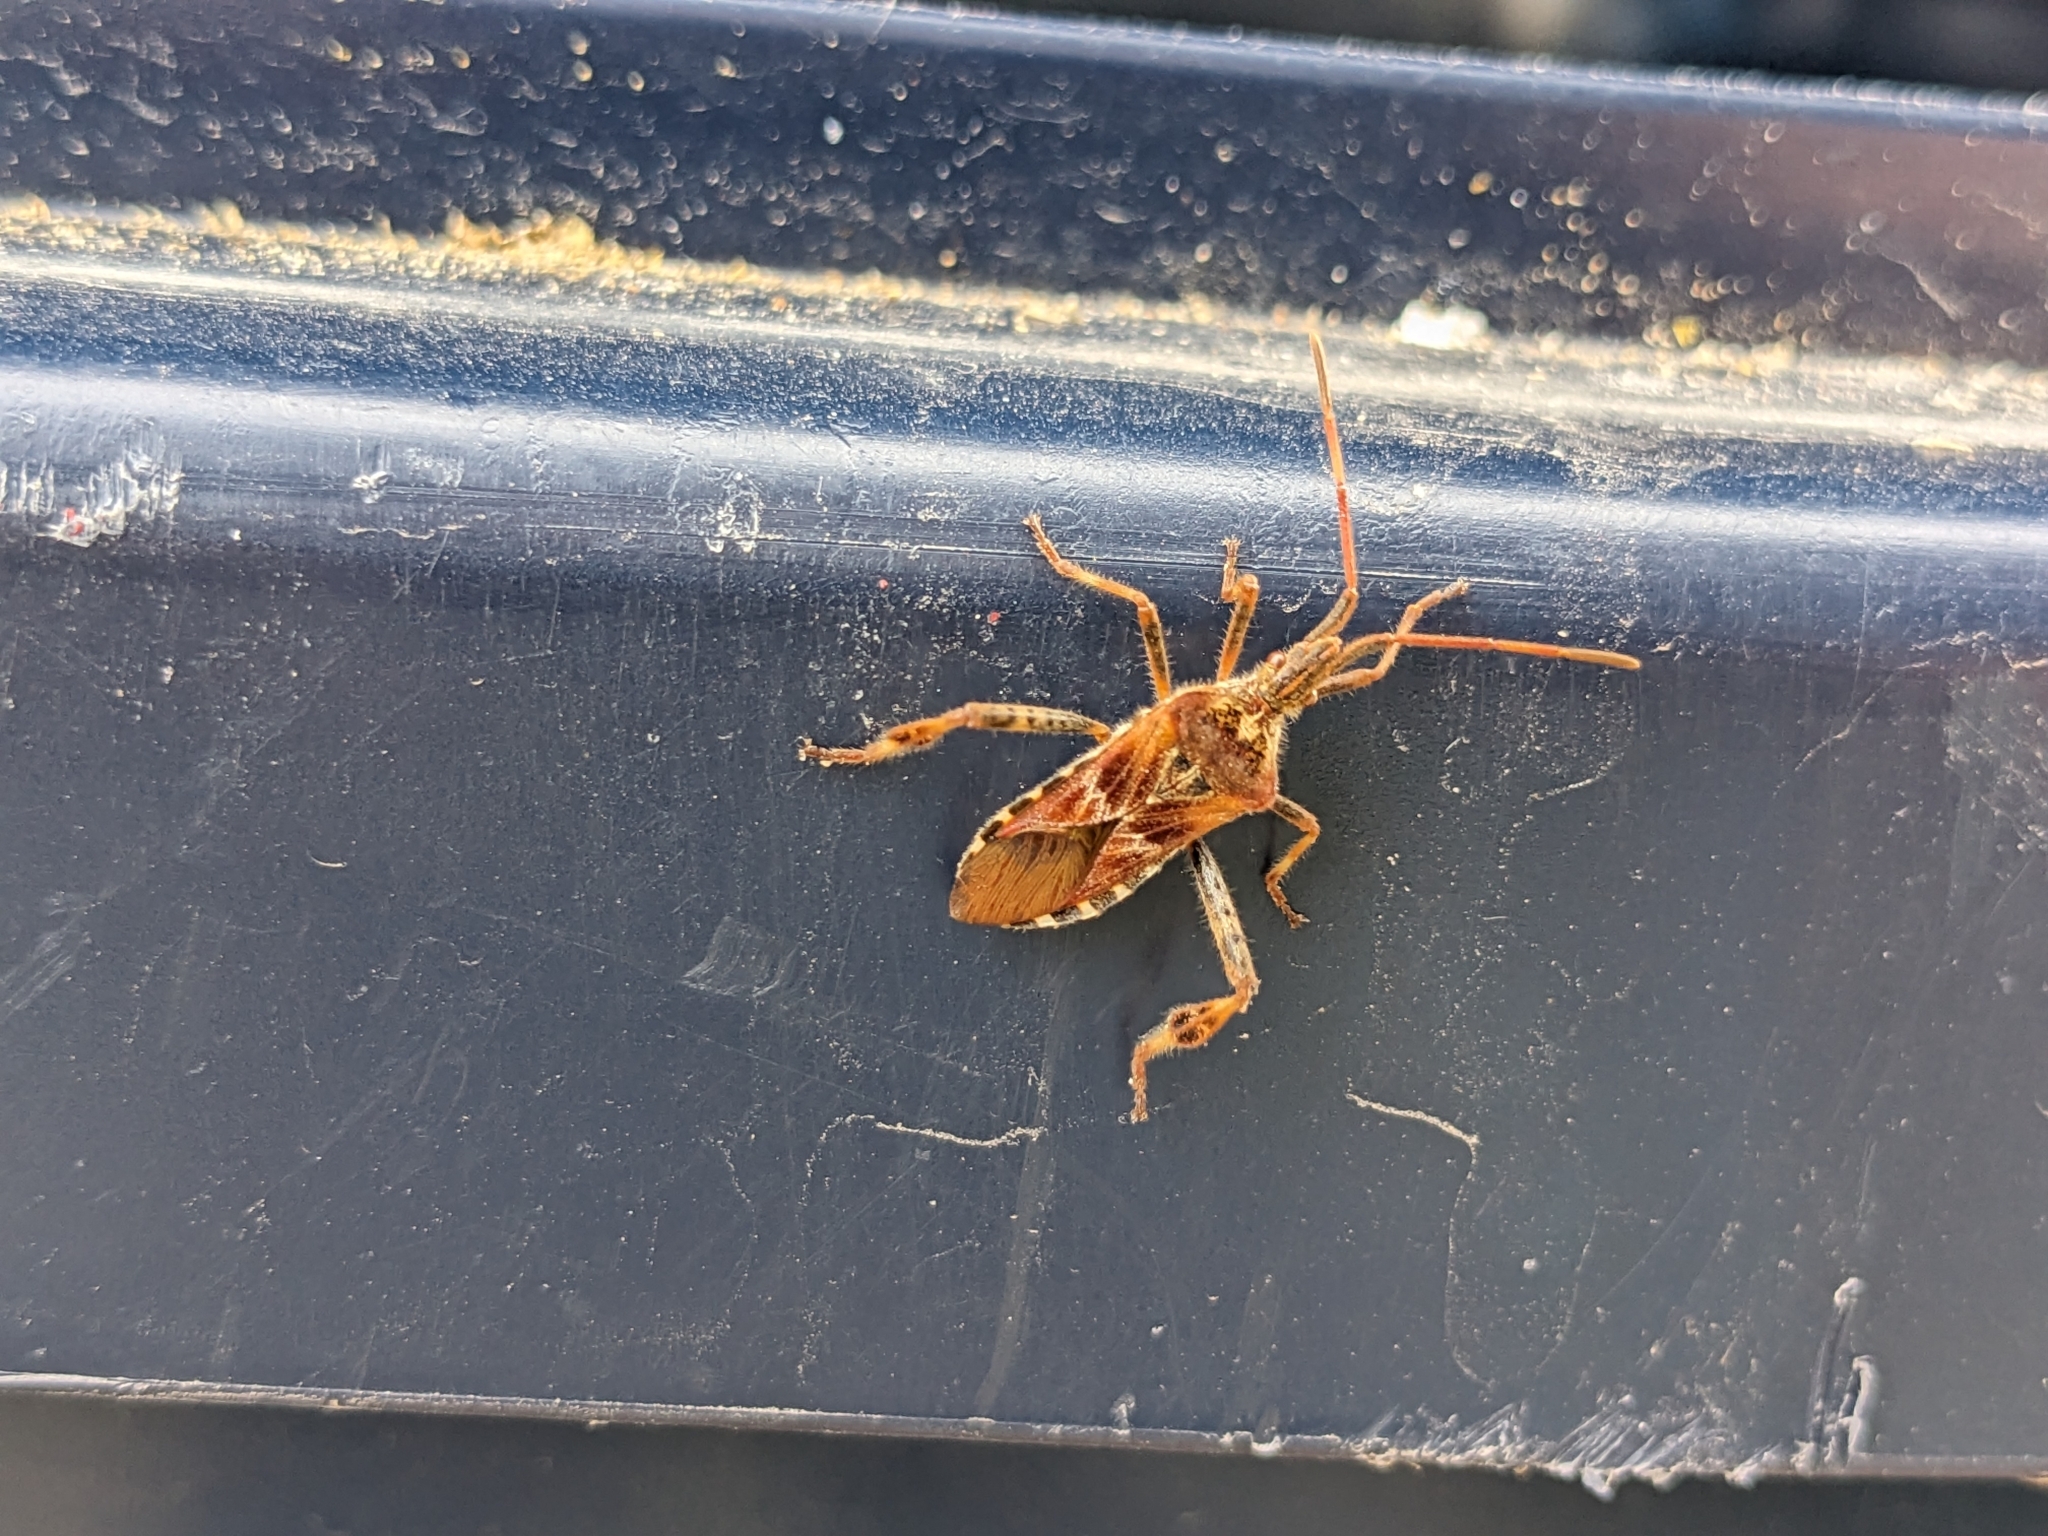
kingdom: Animalia
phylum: Arthropoda
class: Insecta
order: Hemiptera
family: Coreidae
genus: Leptoglossus
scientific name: Leptoglossus occidentalis
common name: Western conifer-seed bug
